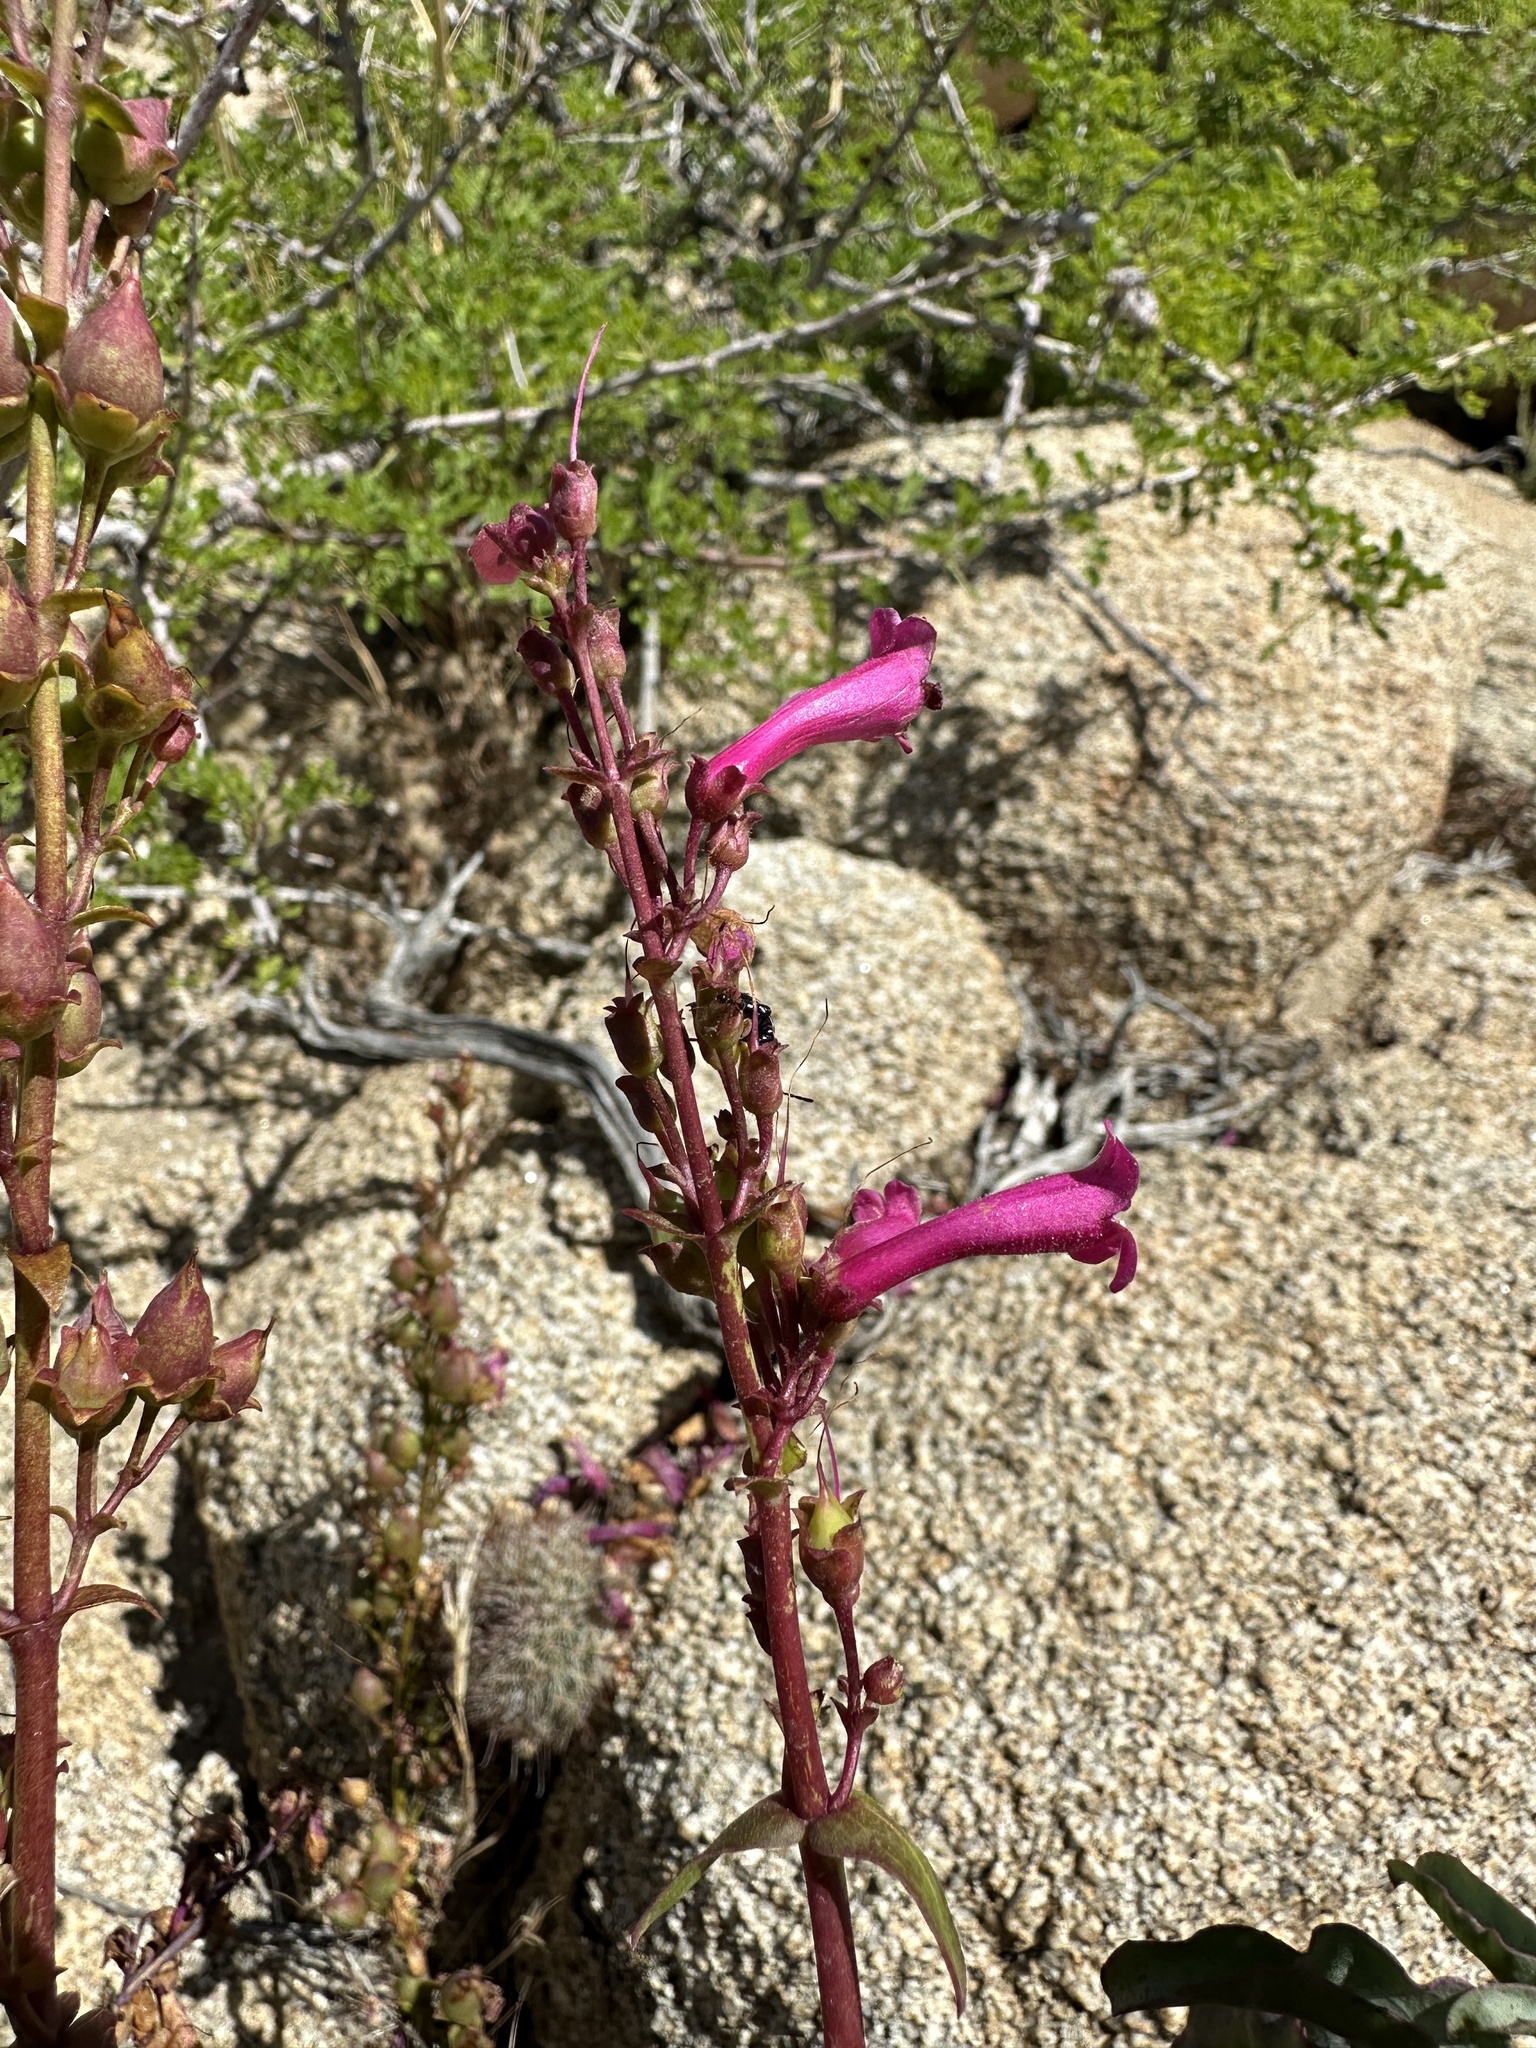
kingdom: Plantae
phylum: Tracheophyta
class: Magnoliopsida
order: Lamiales
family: Plantaginaceae
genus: Penstemon
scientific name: Penstemon clevelandii
